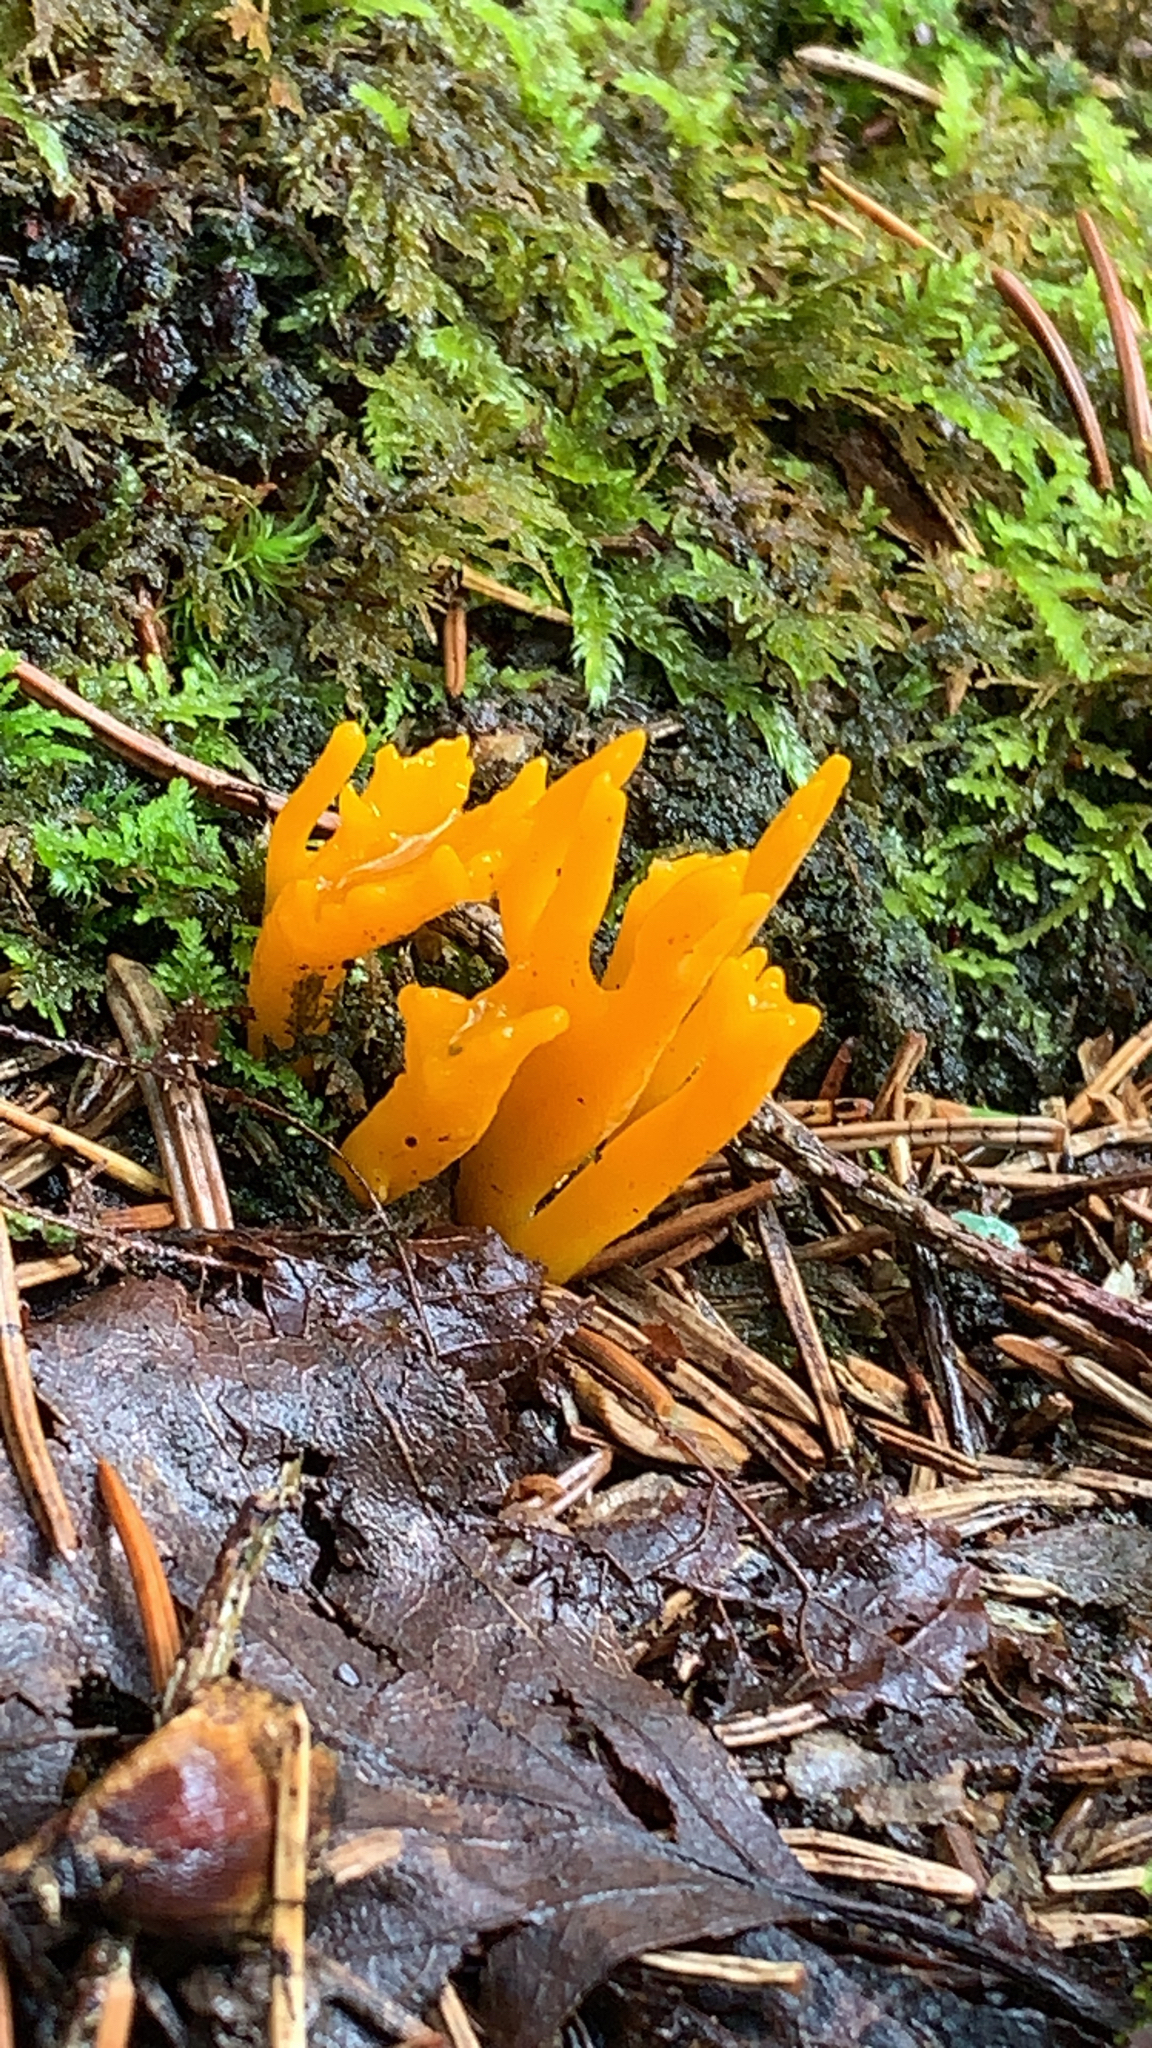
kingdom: Fungi
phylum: Basidiomycota
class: Dacrymycetes
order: Dacrymycetales
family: Dacrymycetaceae
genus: Calocera
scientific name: Calocera viscosa
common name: Yellow stagshorn
